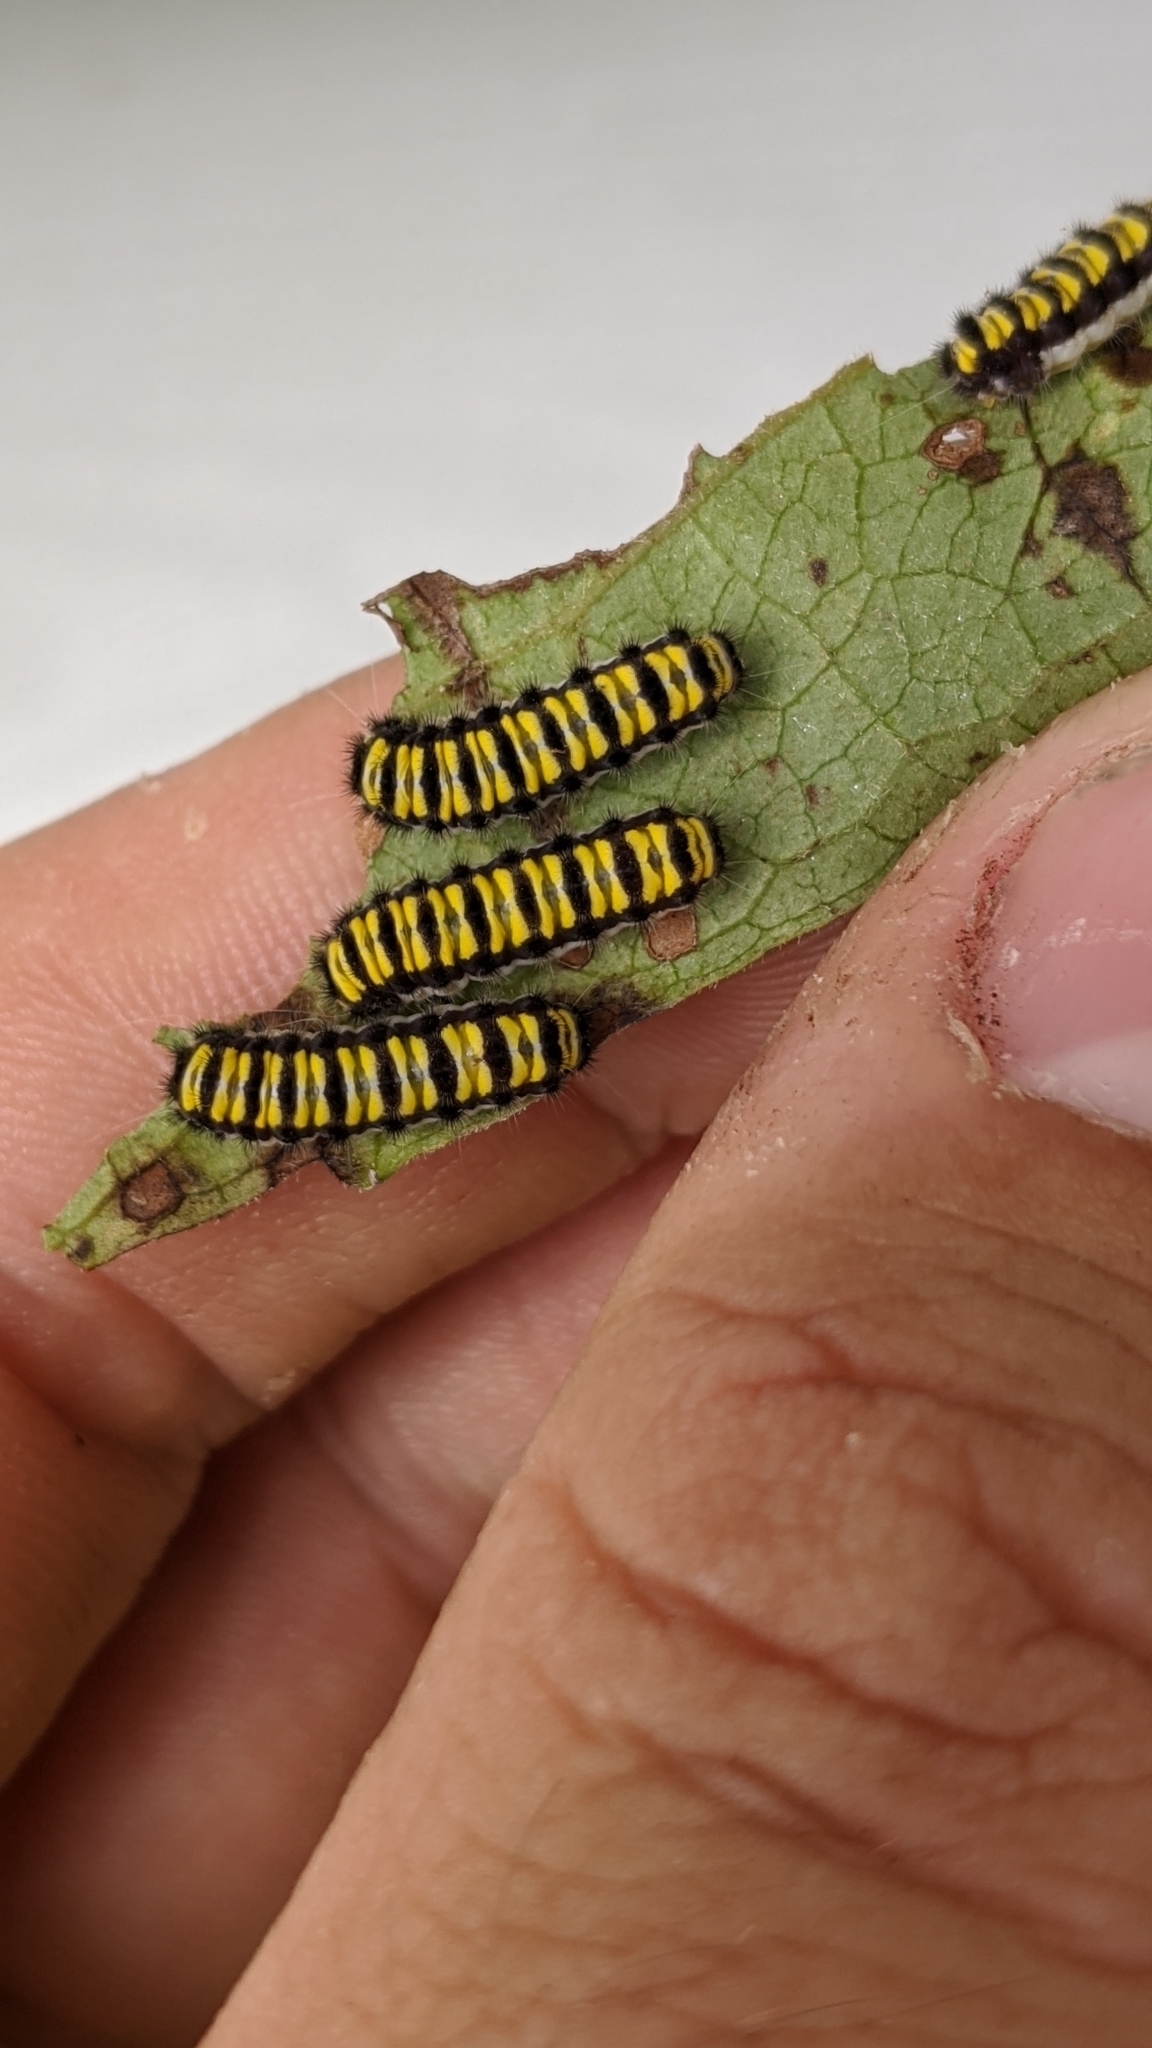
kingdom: Animalia
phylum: Arthropoda
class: Insecta
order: Lepidoptera
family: Zygaenidae
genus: Harrisina
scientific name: Harrisina americana
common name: Grapeleaf skeletonizer moth
